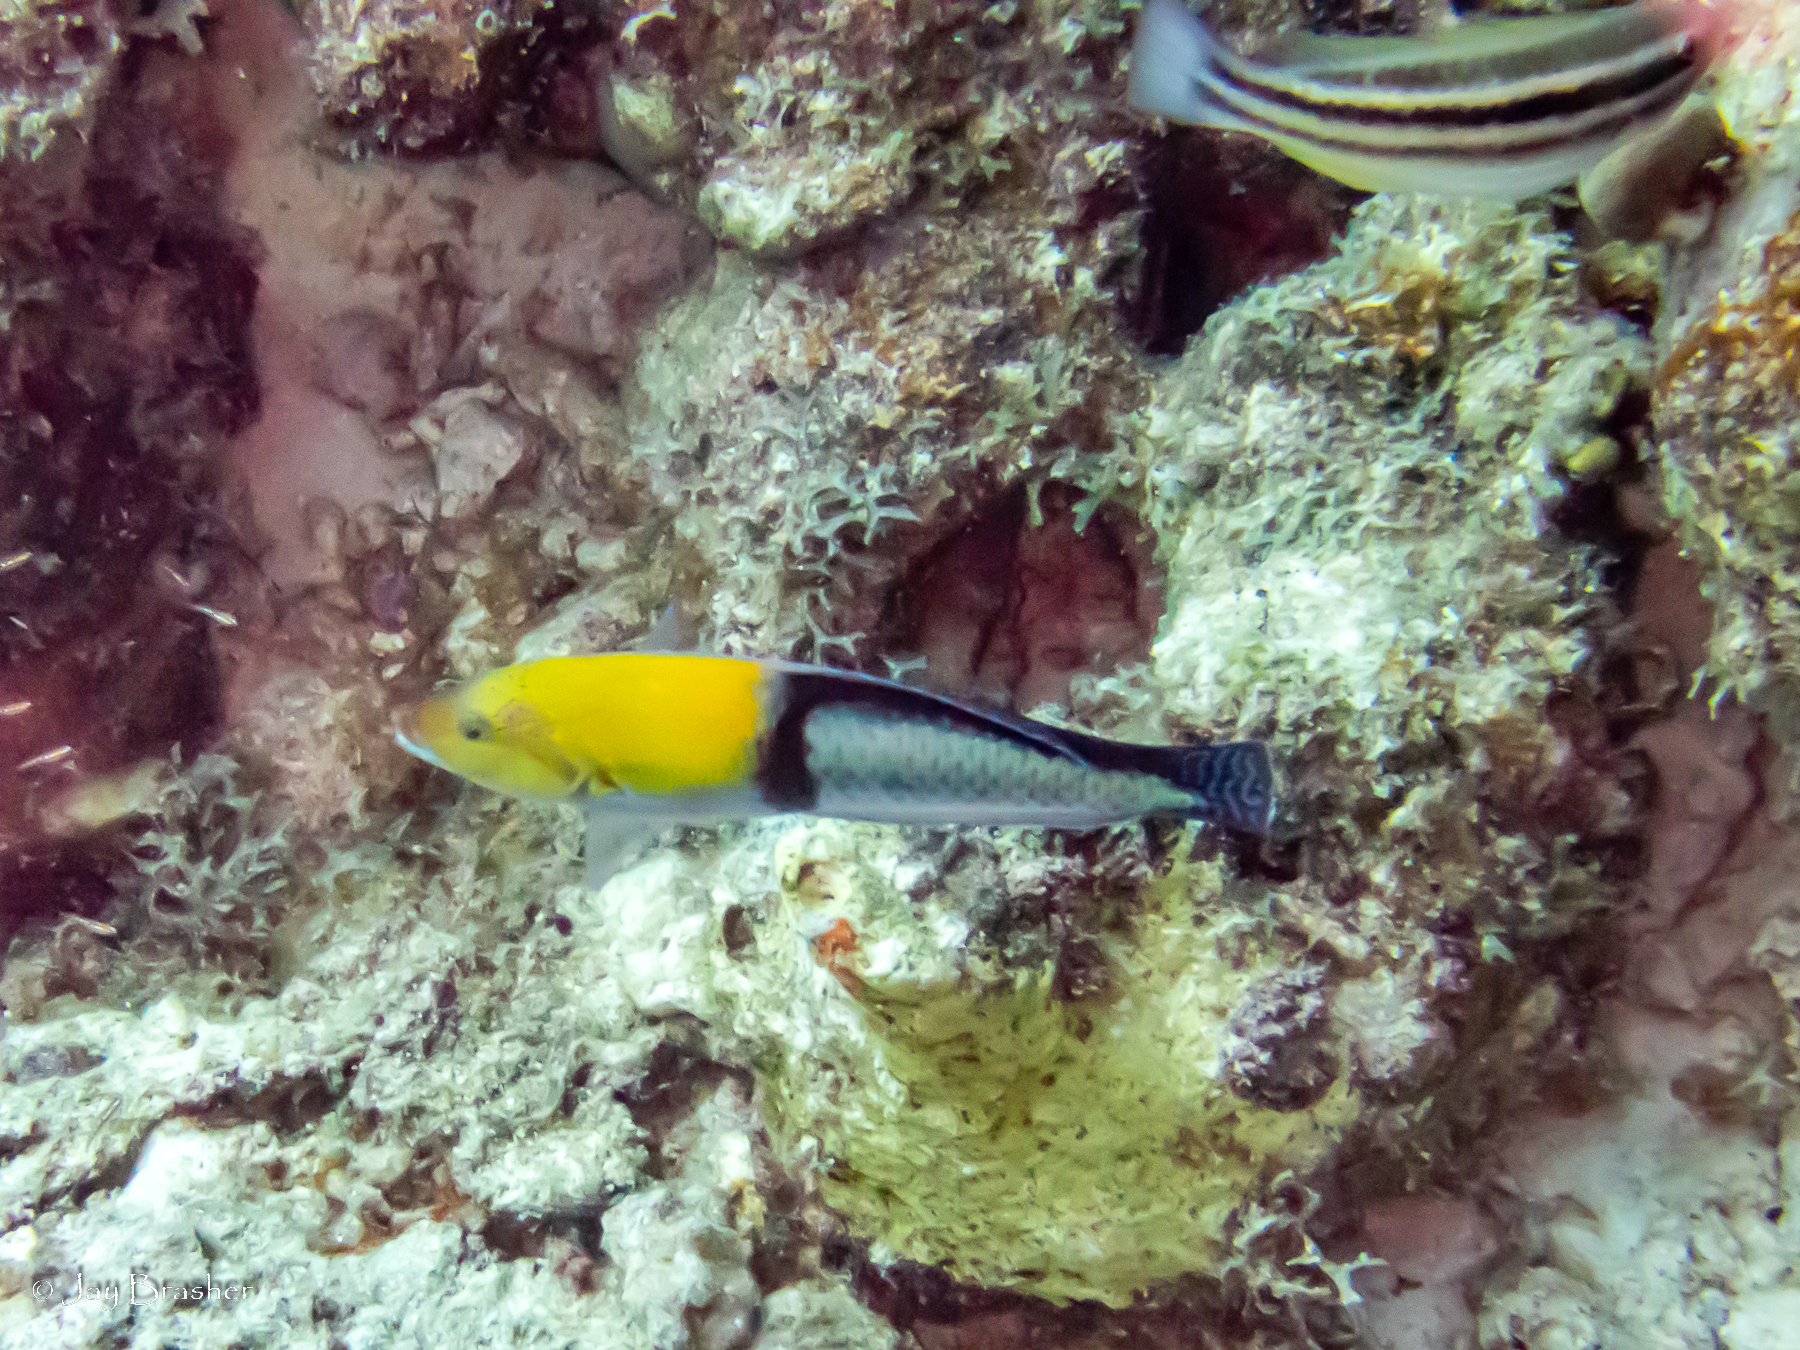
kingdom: Animalia
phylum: Chordata
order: Perciformes
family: Scaridae
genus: Scarus
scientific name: Scarus iseri
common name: Striped parrotfish
